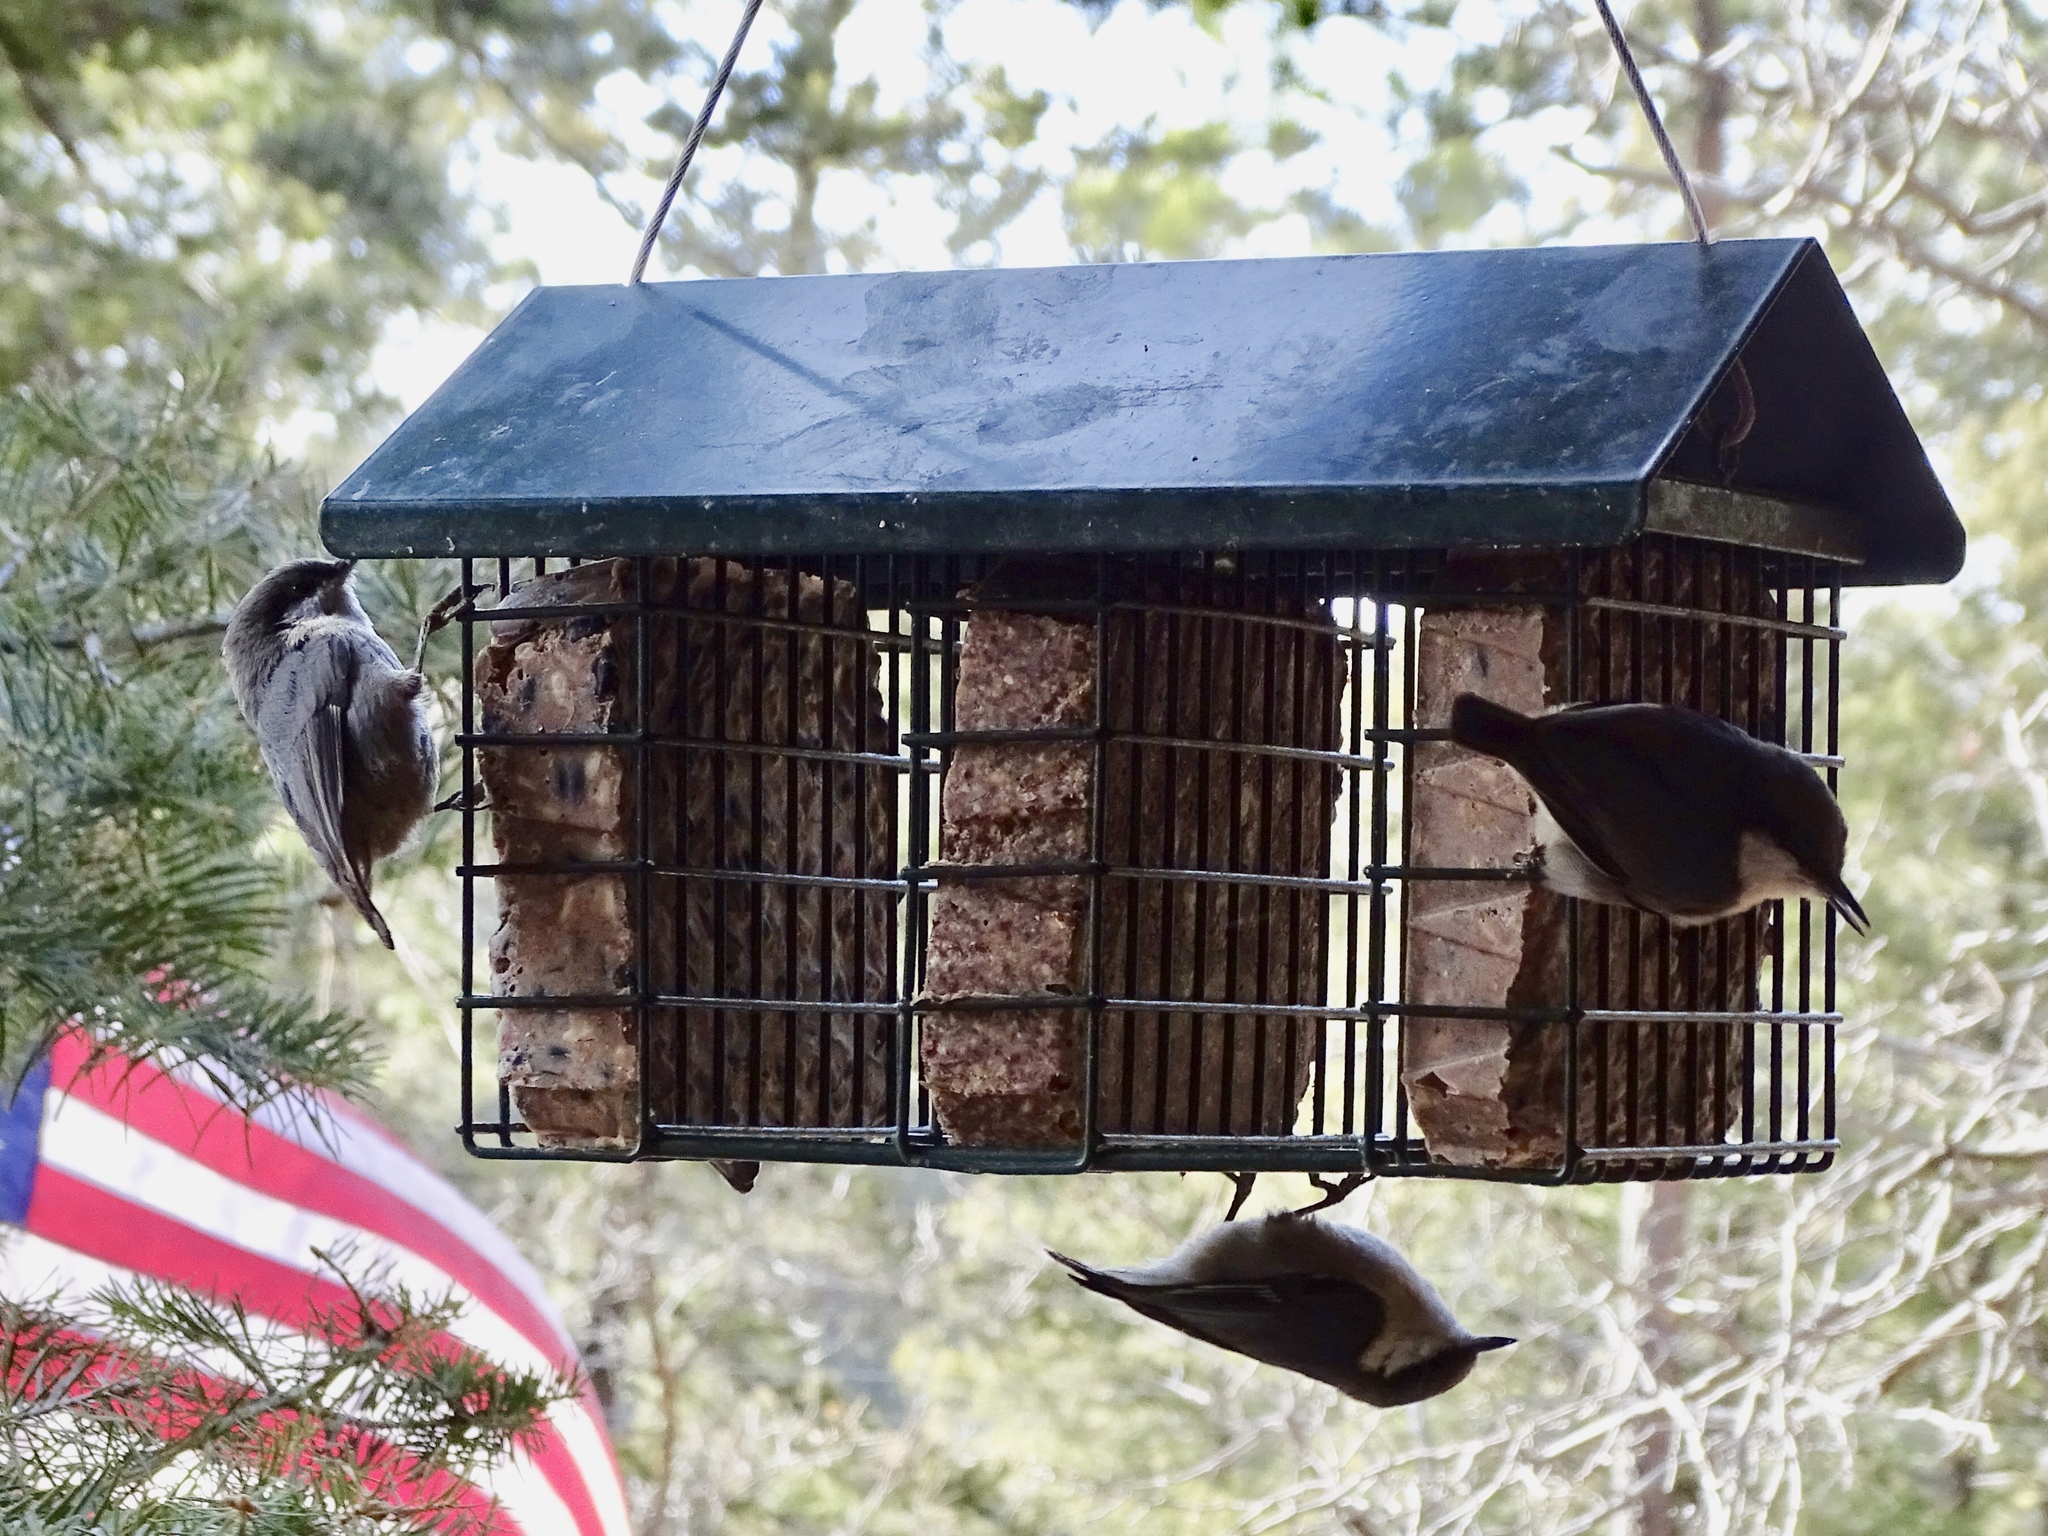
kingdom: Animalia
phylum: Chordata
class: Aves
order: Passeriformes
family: Sittidae
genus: Sitta
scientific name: Sitta pygmaea
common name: Pygmy nuthatch
